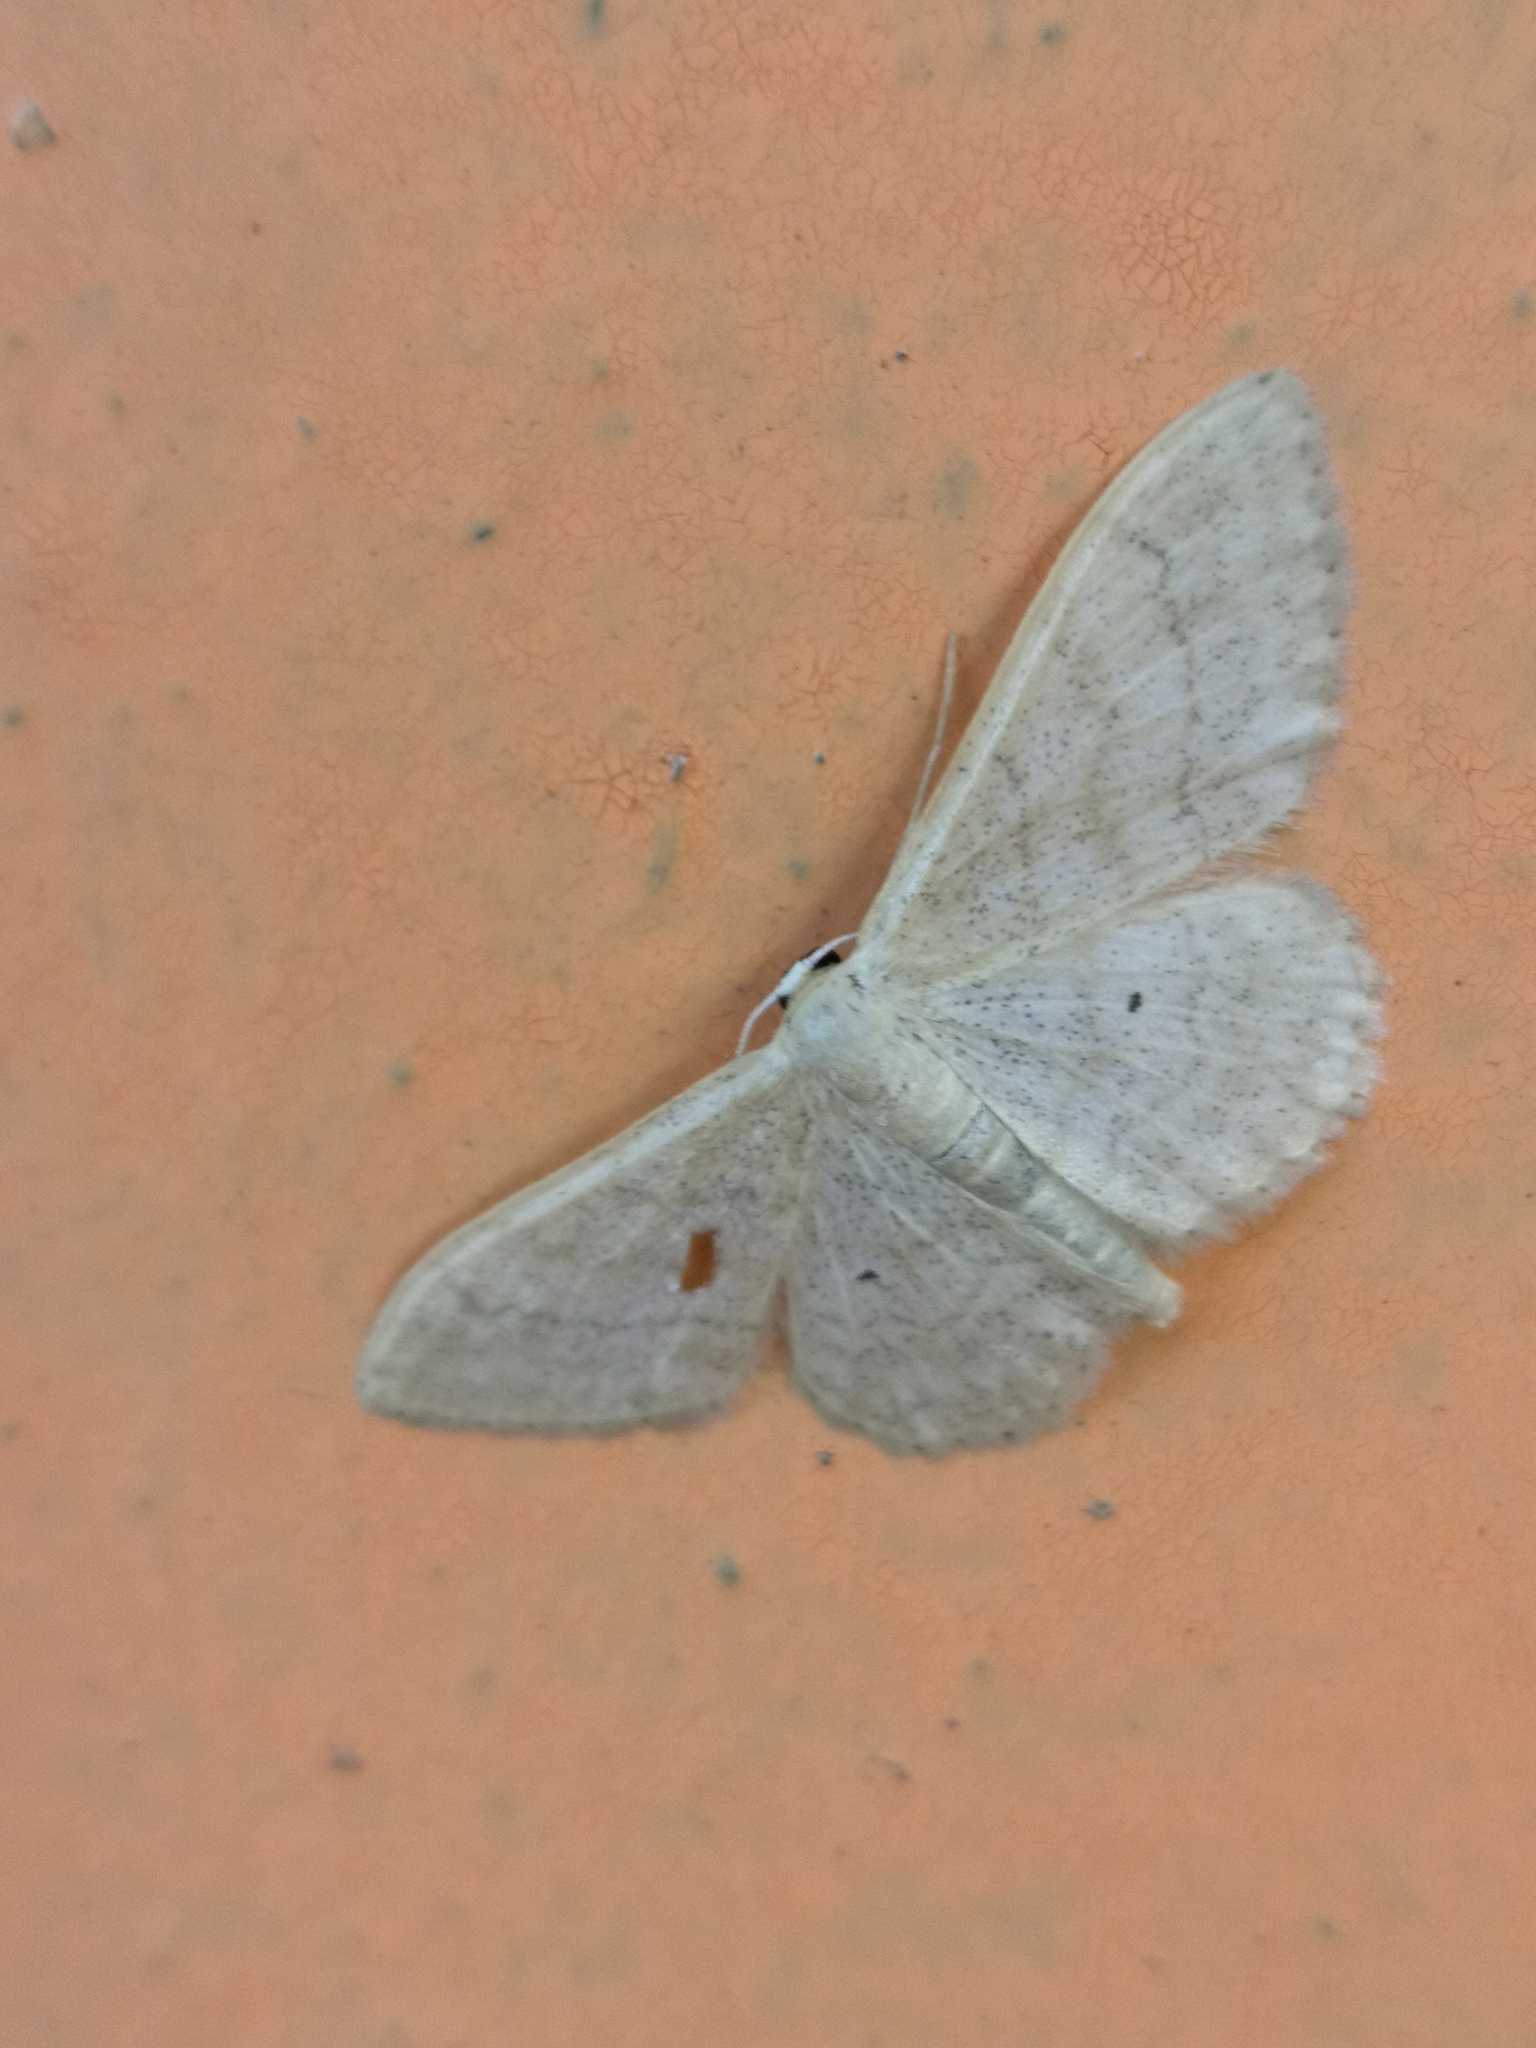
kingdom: Animalia
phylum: Arthropoda
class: Insecta
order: Lepidoptera
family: Geometridae
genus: Idaea
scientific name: Idaea maritimaria
